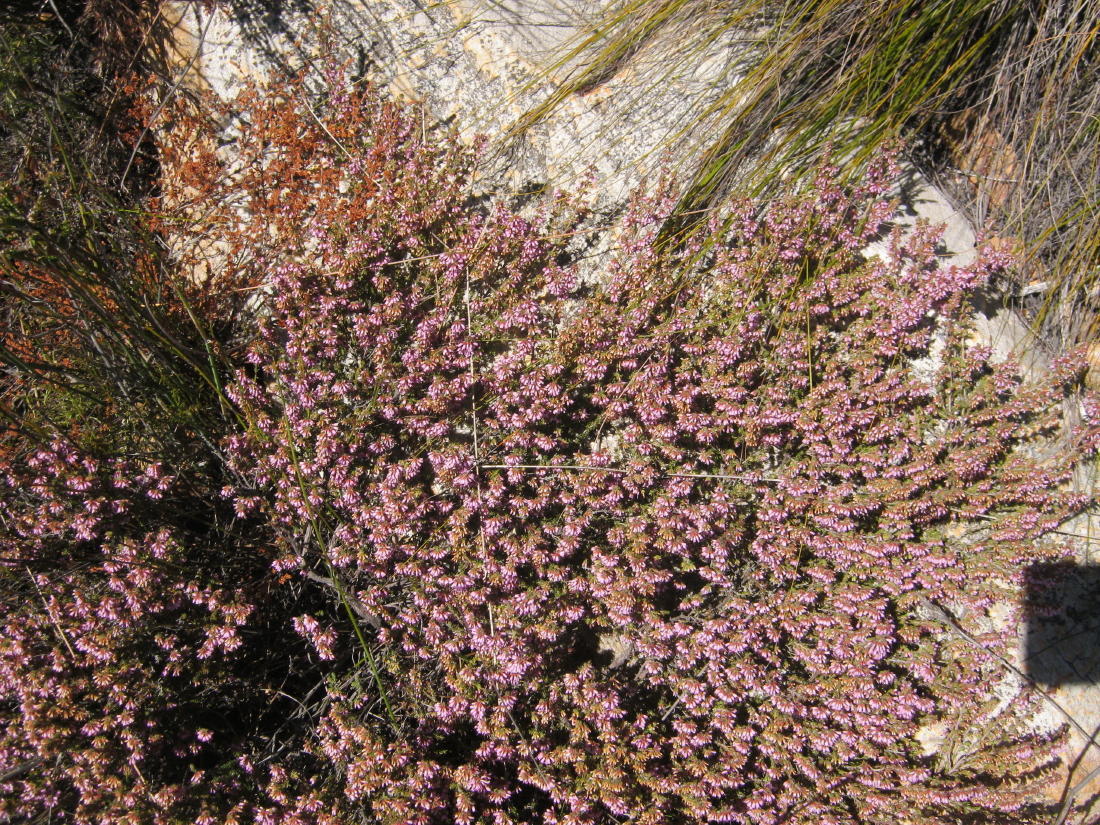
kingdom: Plantae
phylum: Tracheophyta
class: Magnoliopsida
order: Ericales
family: Ericaceae
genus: Erica
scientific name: Erica uberiflora
